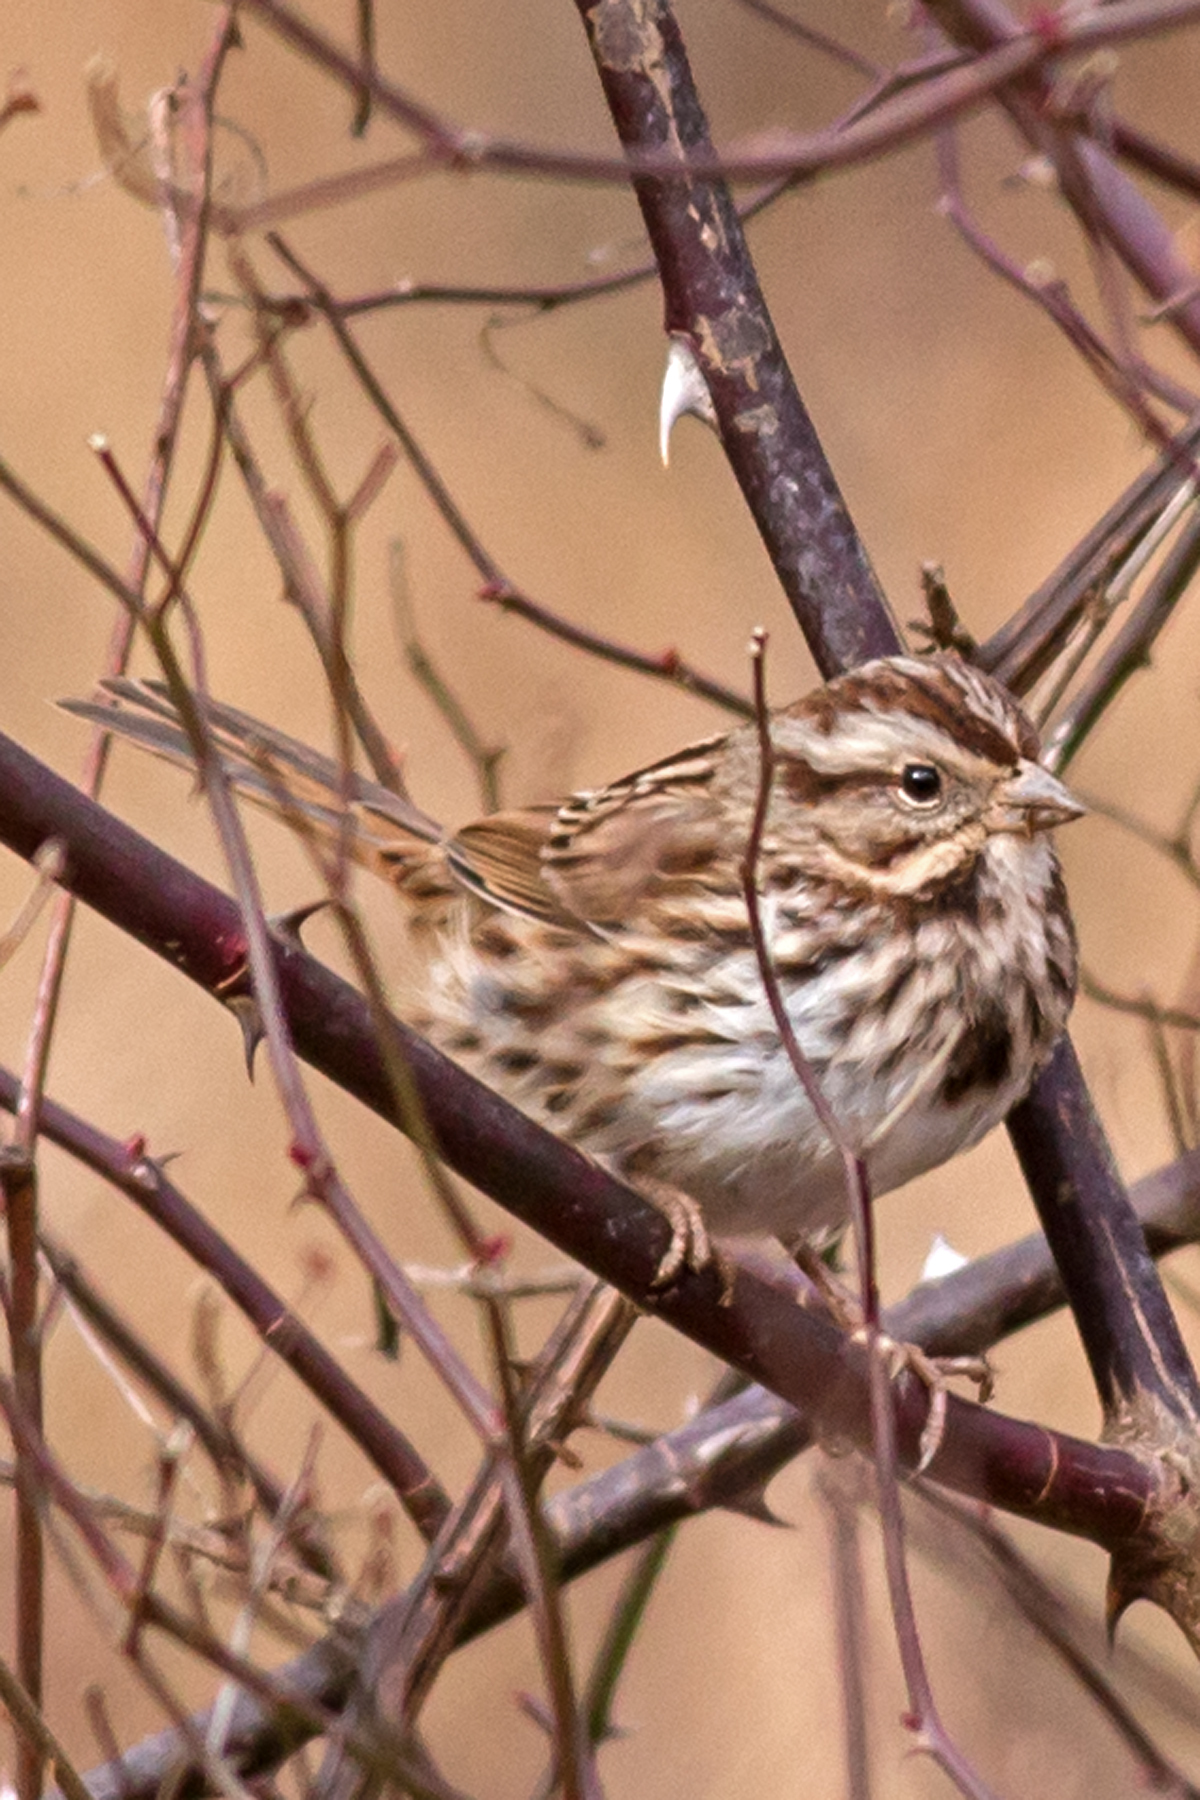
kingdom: Animalia
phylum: Chordata
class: Aves
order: Passeriformes
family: Passerellidae
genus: Melospiza
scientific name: Melospiza melodia
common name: Song sparrow
